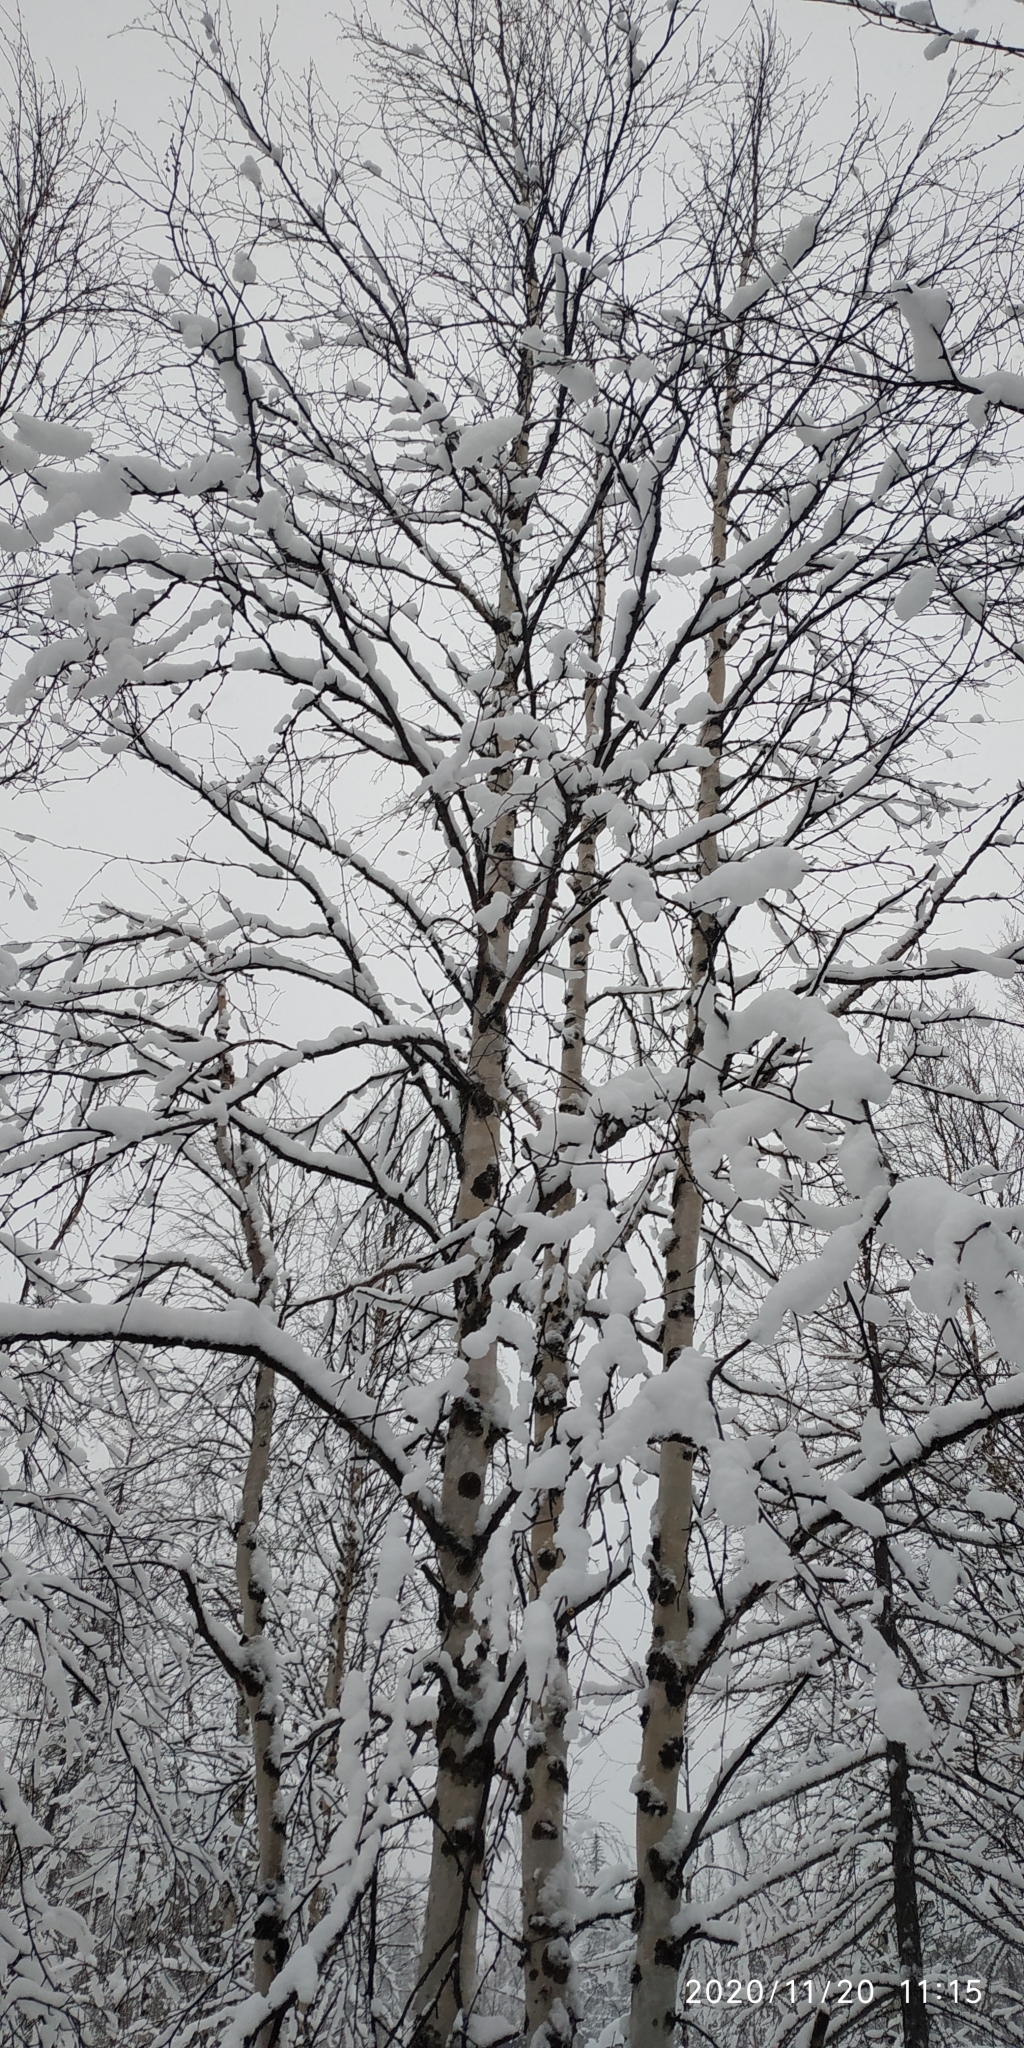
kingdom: Plantae
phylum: Tracheophyta
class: Magnoliopsida
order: Fagales
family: Betulaceae
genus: Betula
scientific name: Betula pubescens
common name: Downy birch
